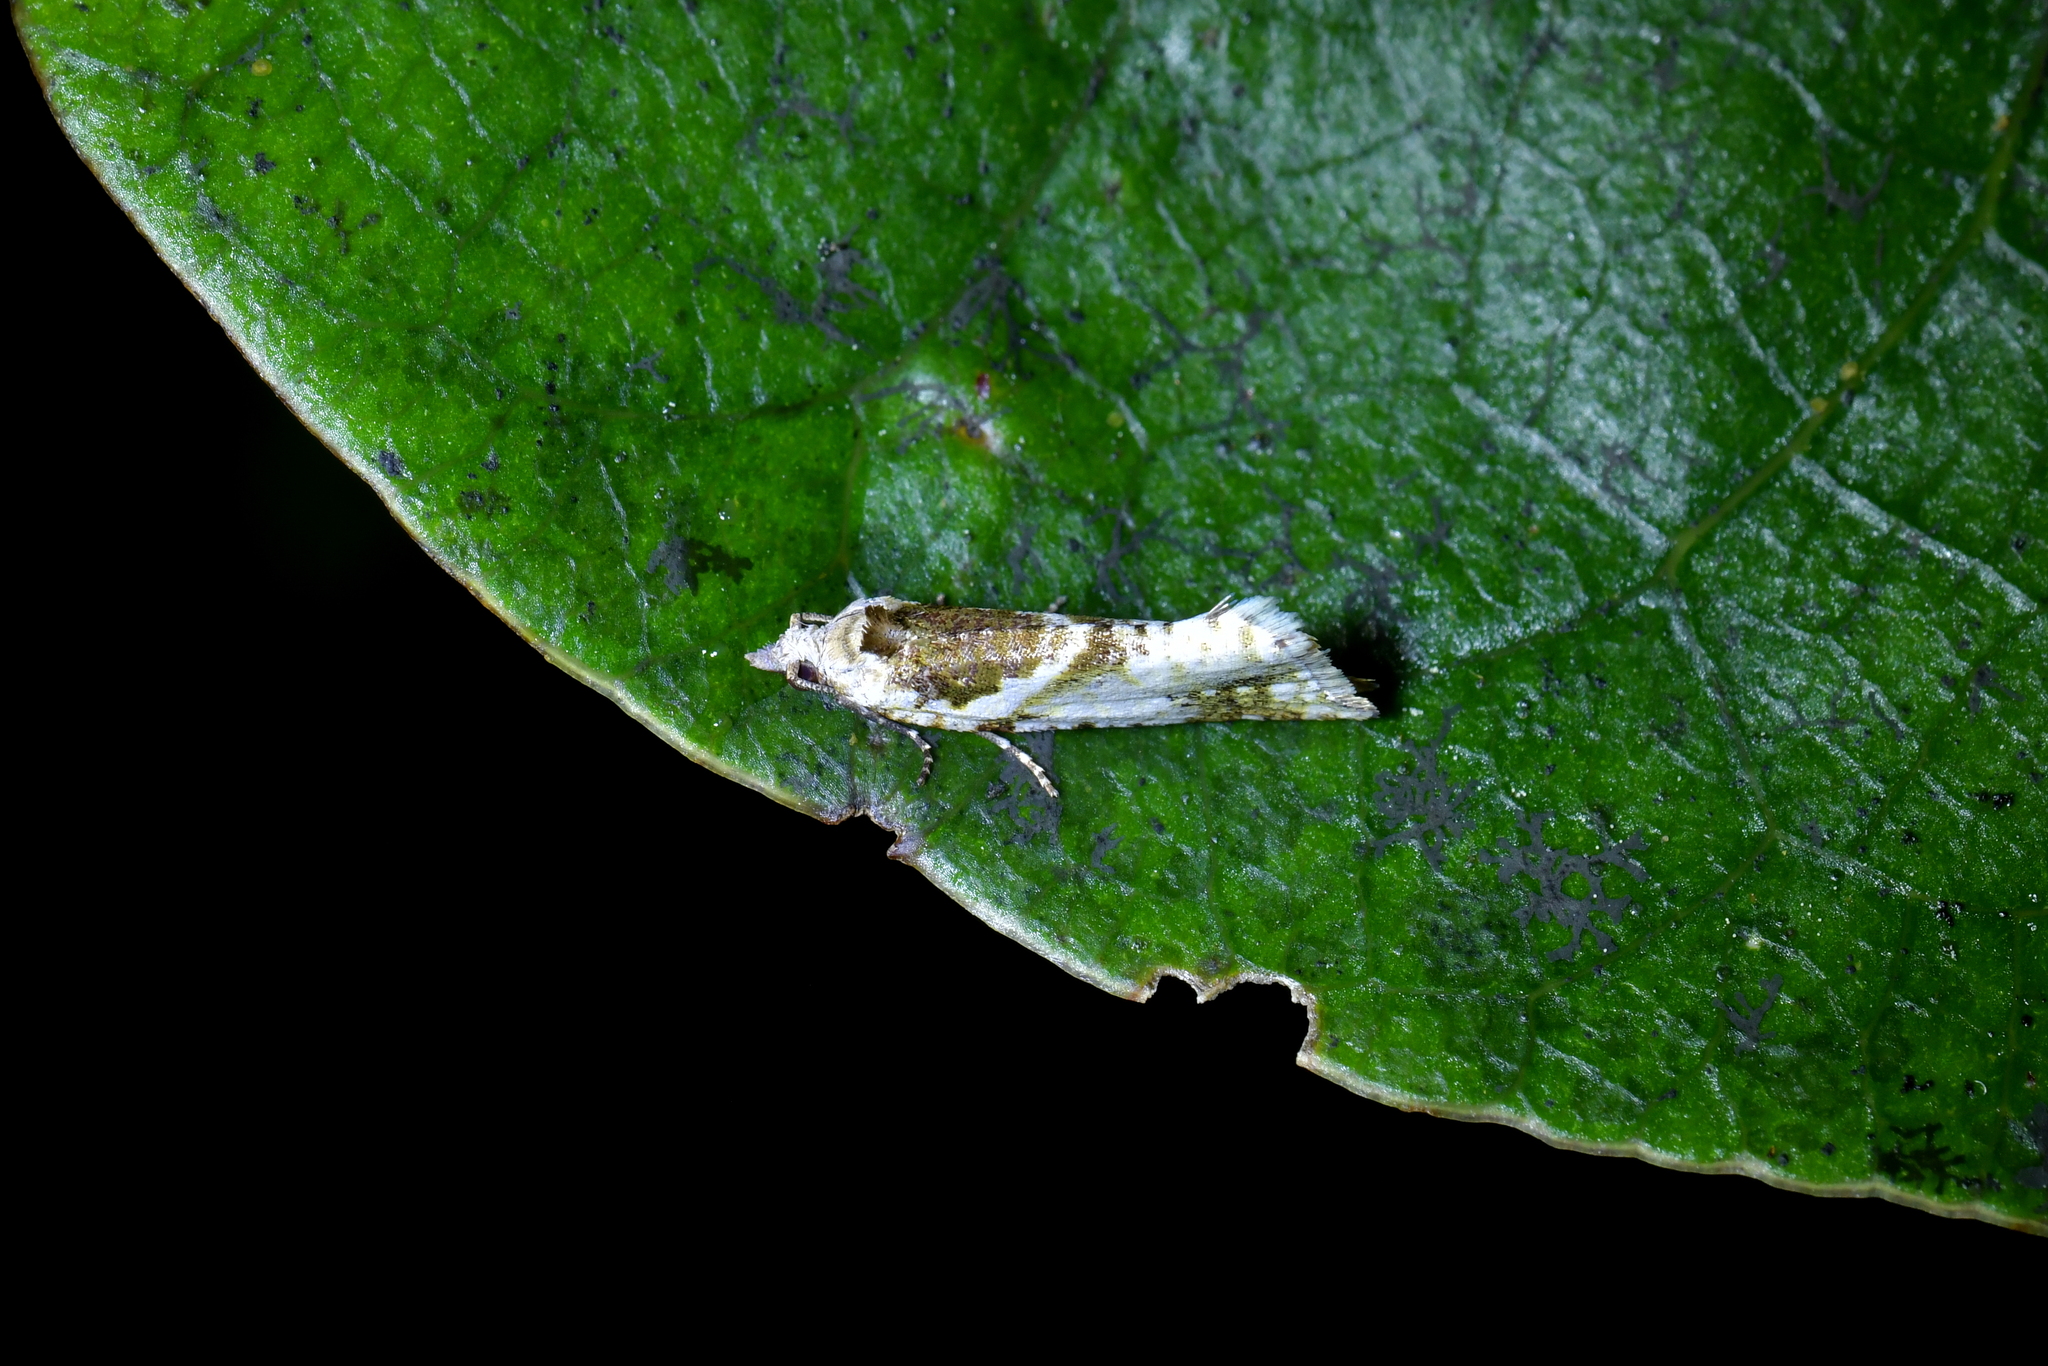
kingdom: Animalia
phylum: Arthropoda
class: Insecta
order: Lepidoptera
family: Tortricidae
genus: Pyrgotis
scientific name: Pyrgotis plagiatana
